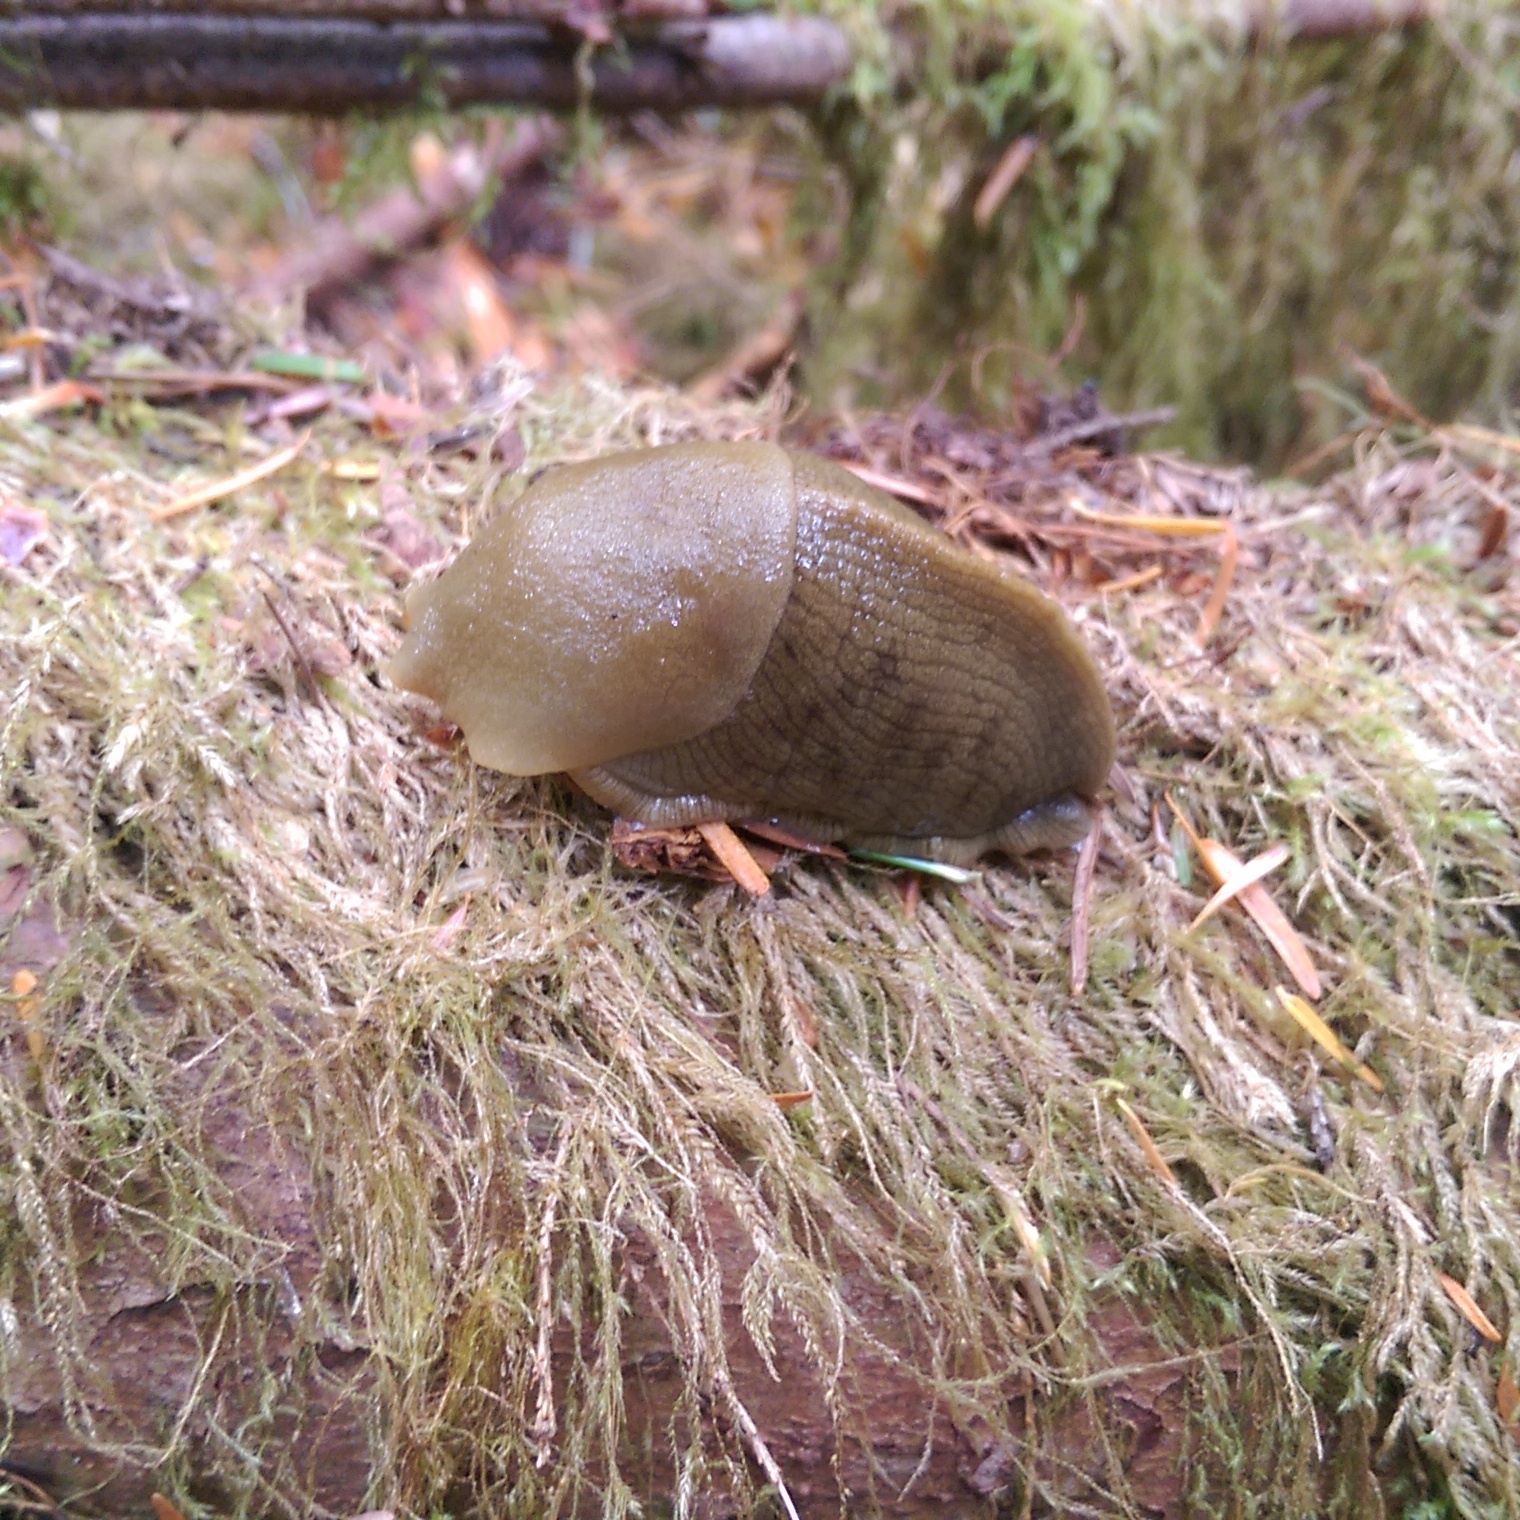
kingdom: Animalia
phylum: Mollusca
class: Gastropoda
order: Stylommatophora
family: Ariolimacidae
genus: Ariolimax
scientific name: Ariolimax columbianus
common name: Pacific banana slug
